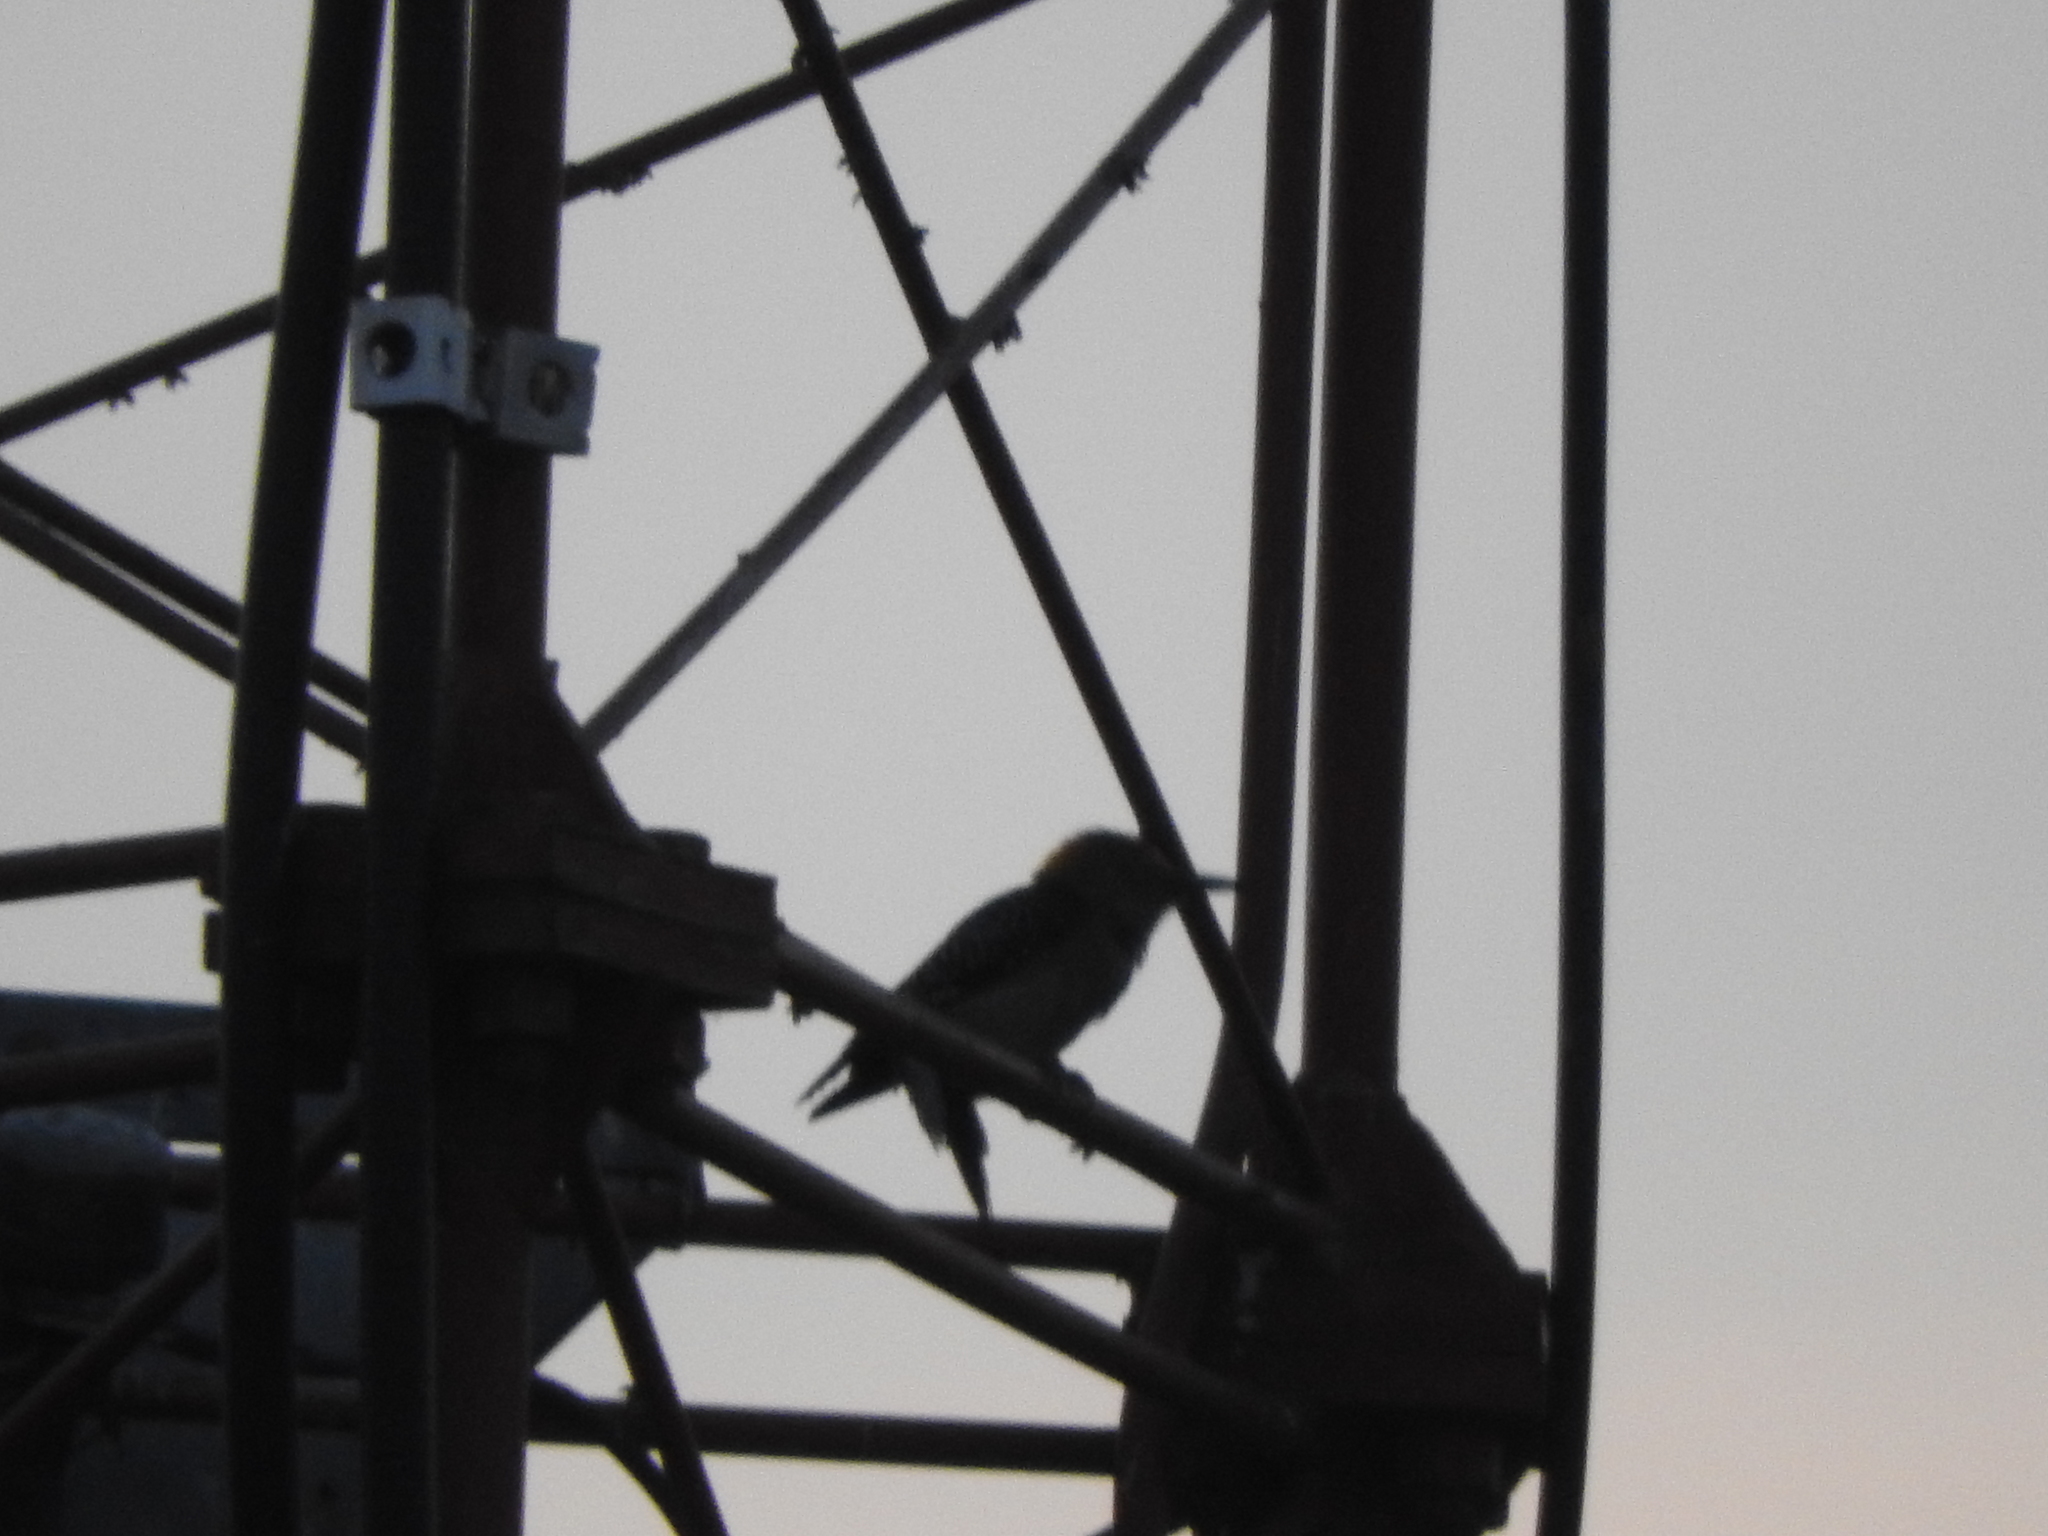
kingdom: Animalia
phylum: Chordata
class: Aves
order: Piciformes
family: Picidae
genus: Melanerpes
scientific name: Melanerpes aurifrons
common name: Golden-fronted woodpecker
